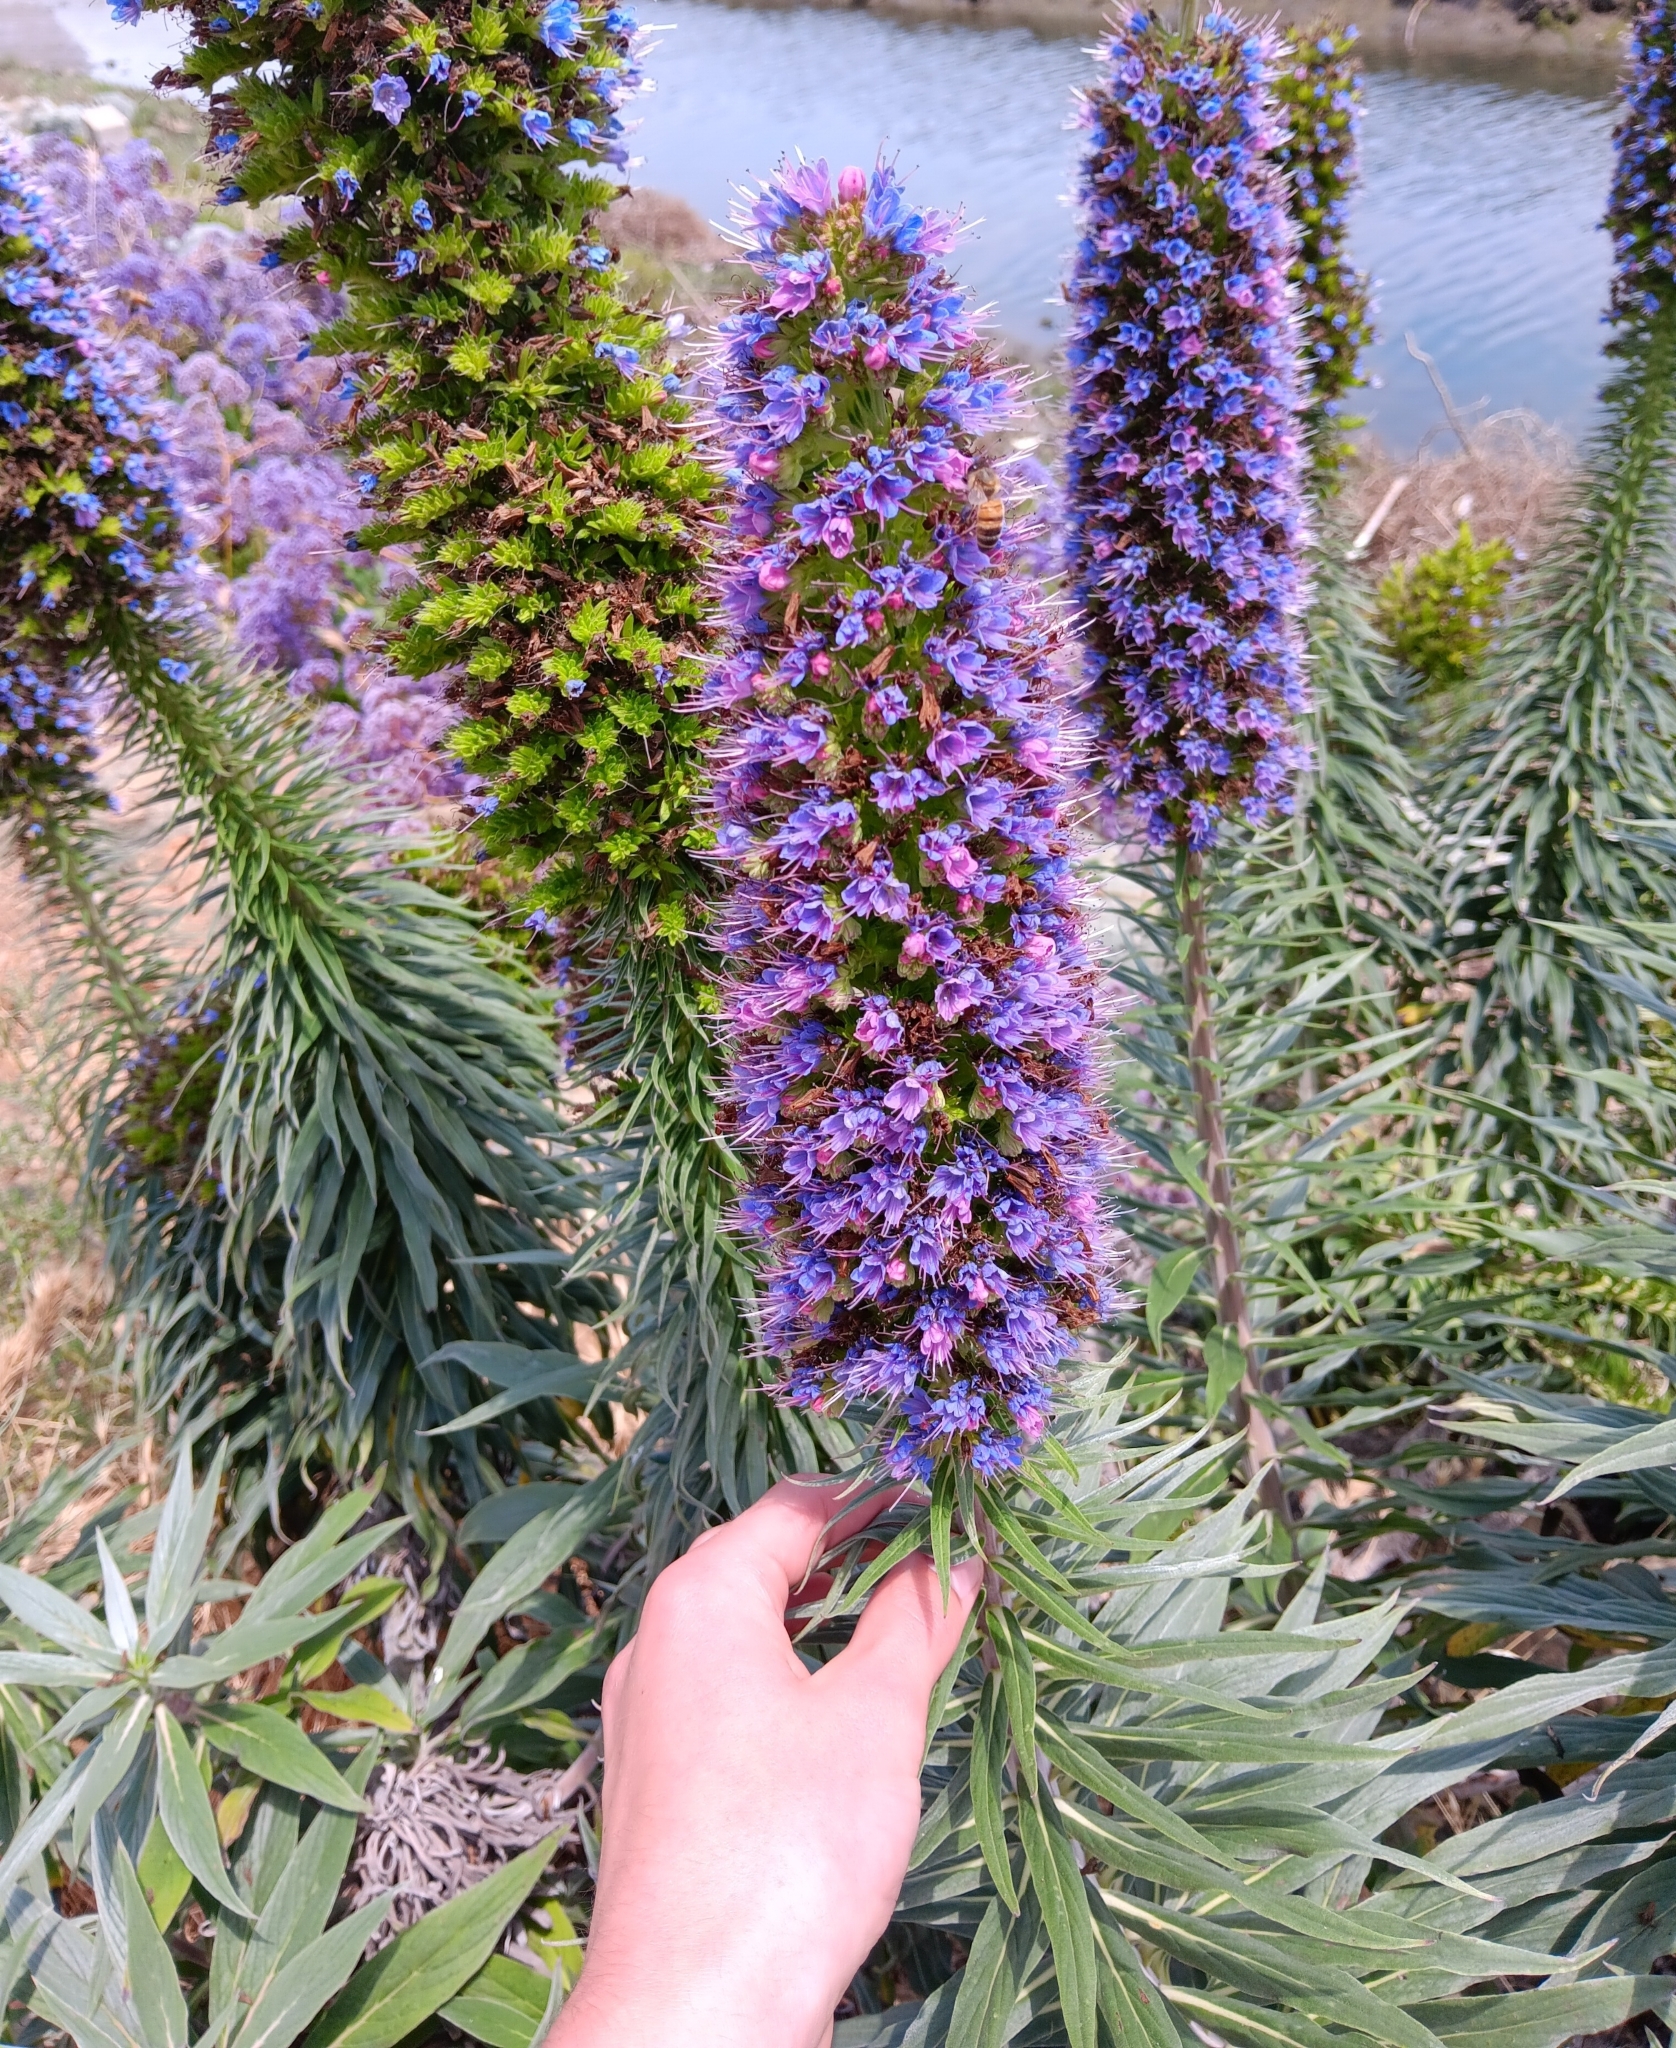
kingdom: Plantae
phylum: Tracheophyta
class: Magnoliopsida
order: Boraginales
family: Boraginaceae
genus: Echium
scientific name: Echium candicans
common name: Pride of madeira
